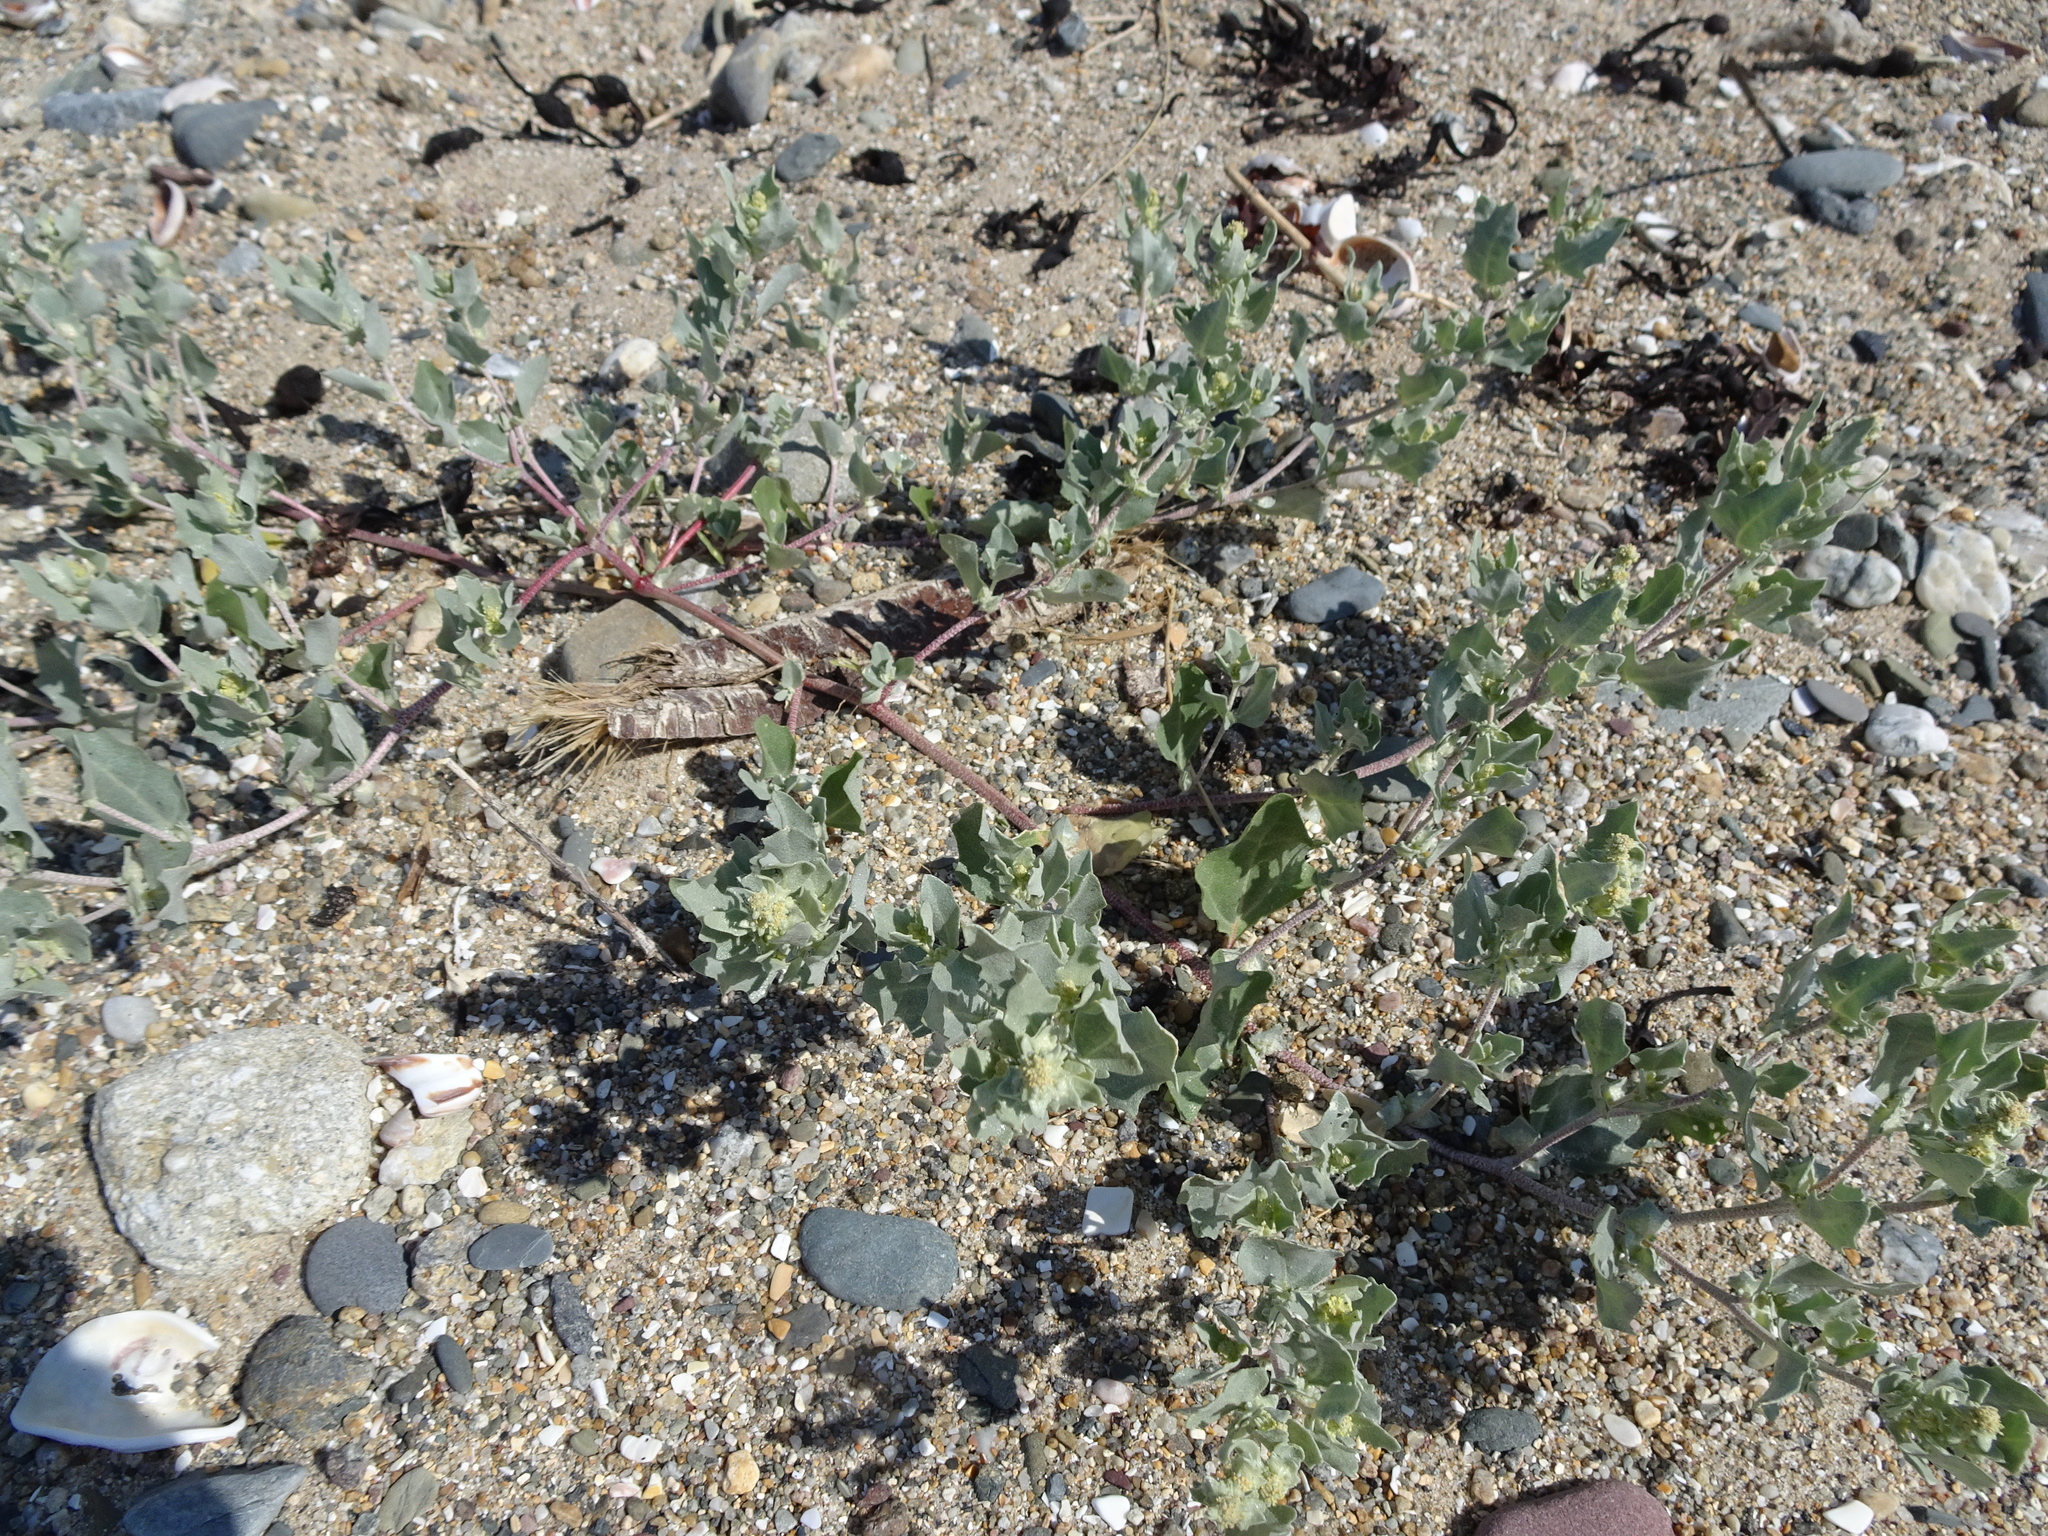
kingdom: Plantae
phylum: Tracheophyta
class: Magnoliopsida
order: Caryophyllales
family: Amaranthaceae
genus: Atriplex
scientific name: Atriplex laciniata
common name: Frosted orache
